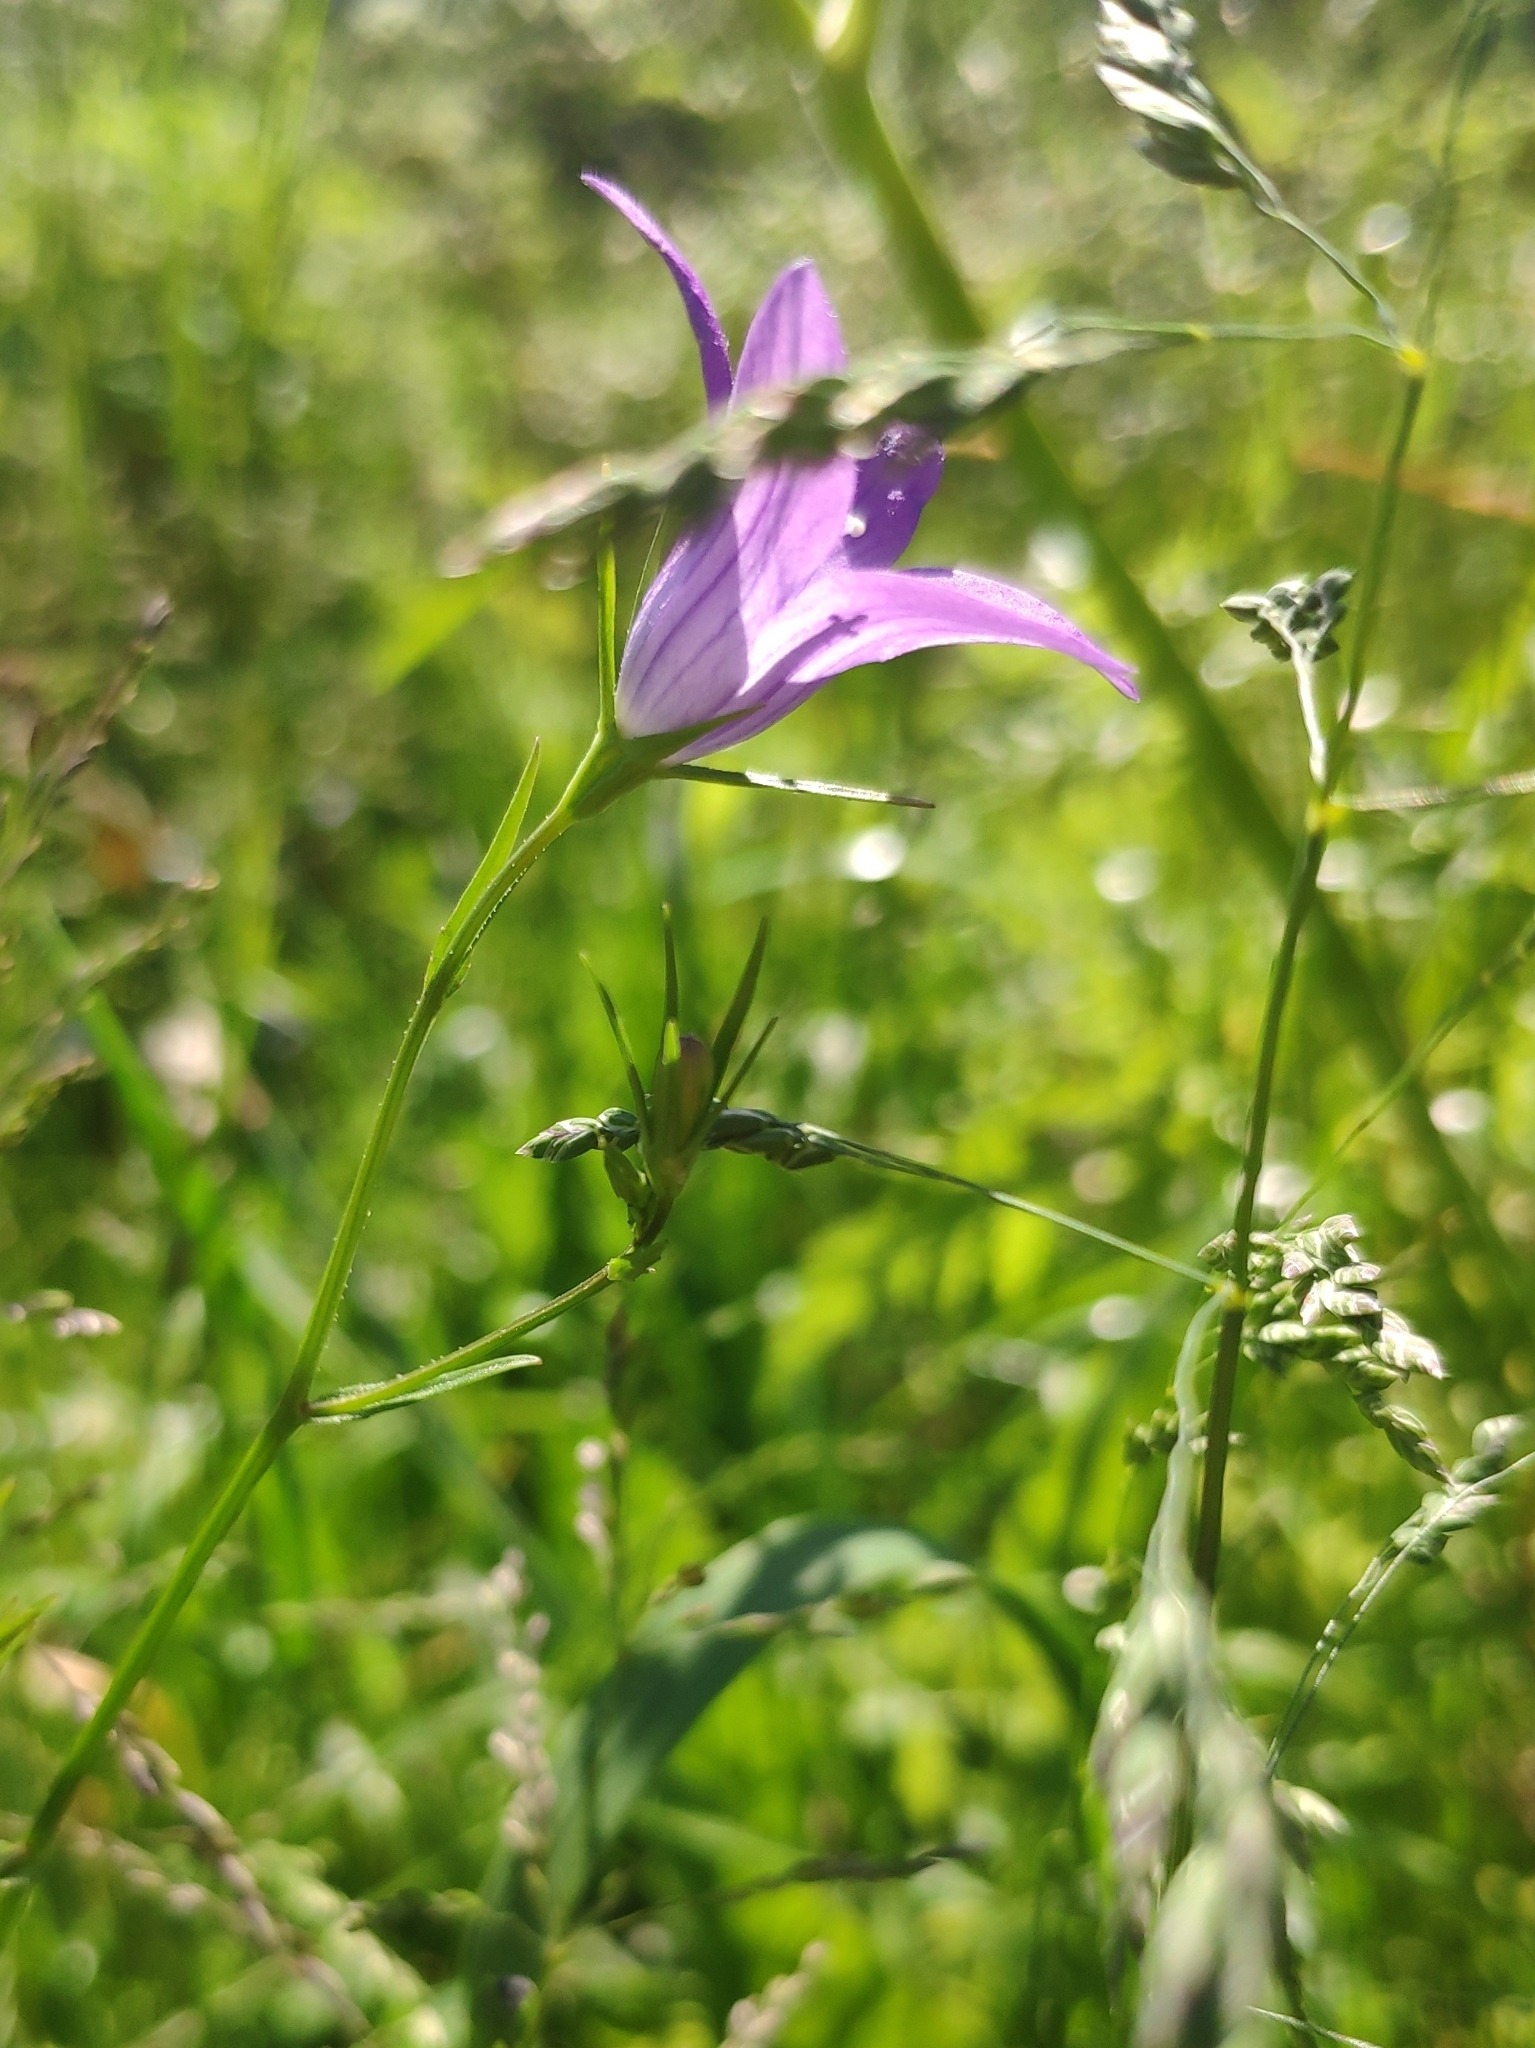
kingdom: Plantae
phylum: Tracheophyta
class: Magnoliopsida
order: Asterales
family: Campanulaceae
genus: Campanula
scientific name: Campanula patula
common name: Spreading bellflower
